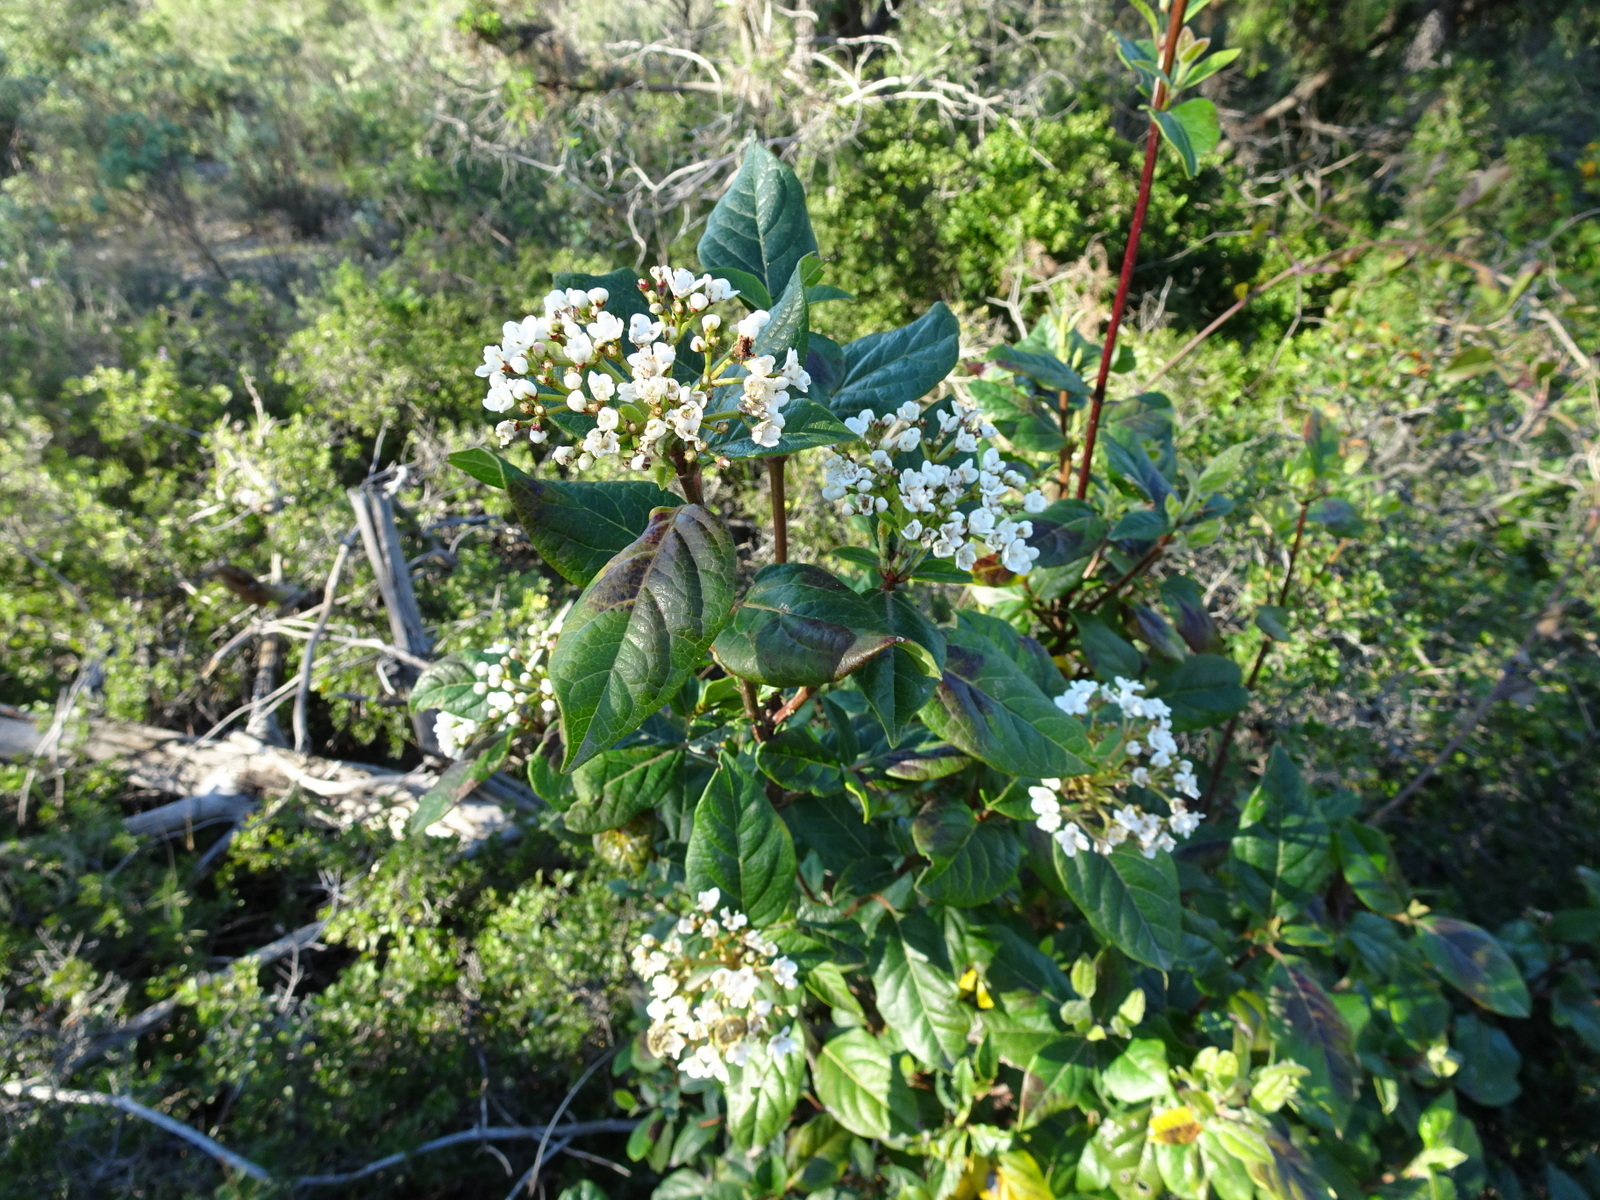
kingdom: Plantae
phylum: Tracheophyta
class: Magnoliopsida
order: Dipsacales
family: Viburnaceae
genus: Viburnum
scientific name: Viburnum tinus
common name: Laurustinus
